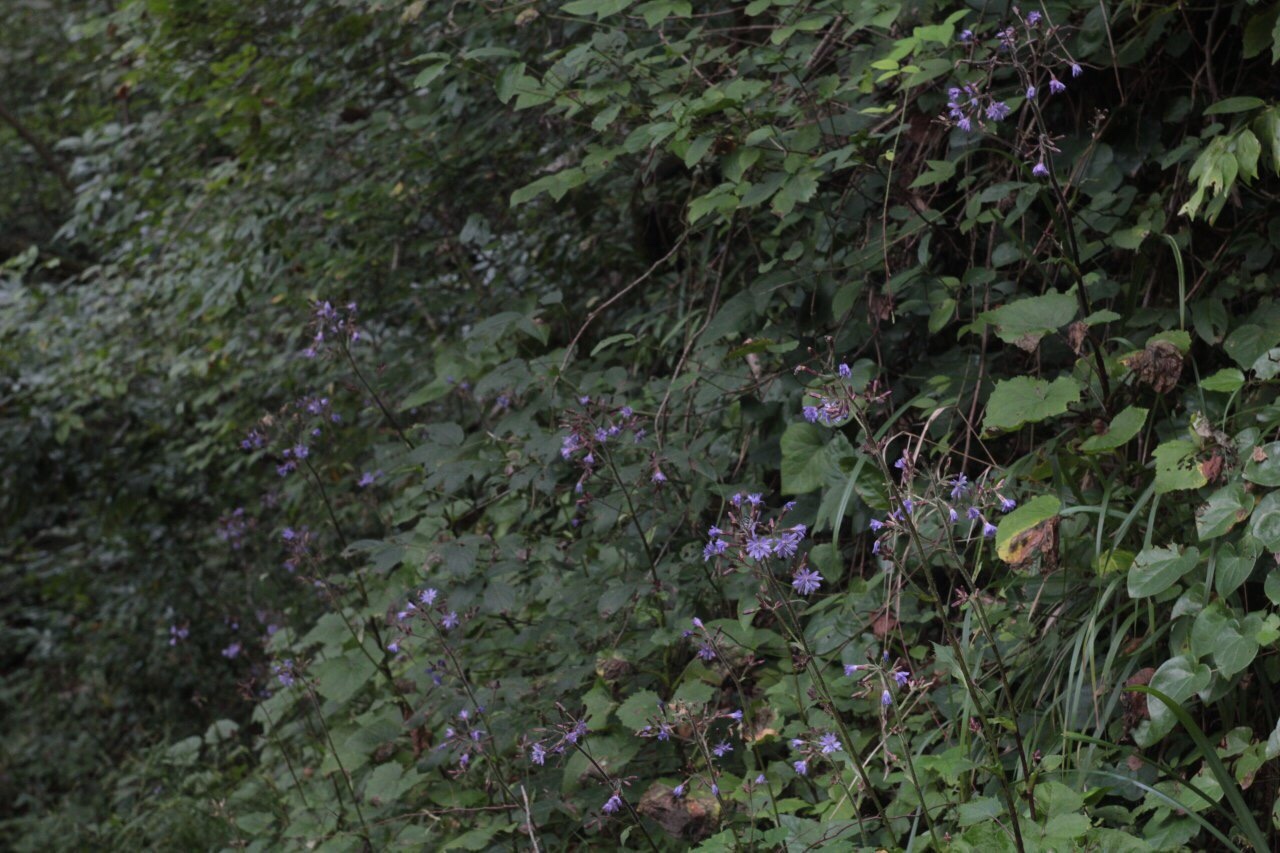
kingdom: Plantae
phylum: Tracheophyta
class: Magnoliopsida
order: Asterales
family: Asteraceae
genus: Cicerbita
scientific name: Cicerbita petiolata
